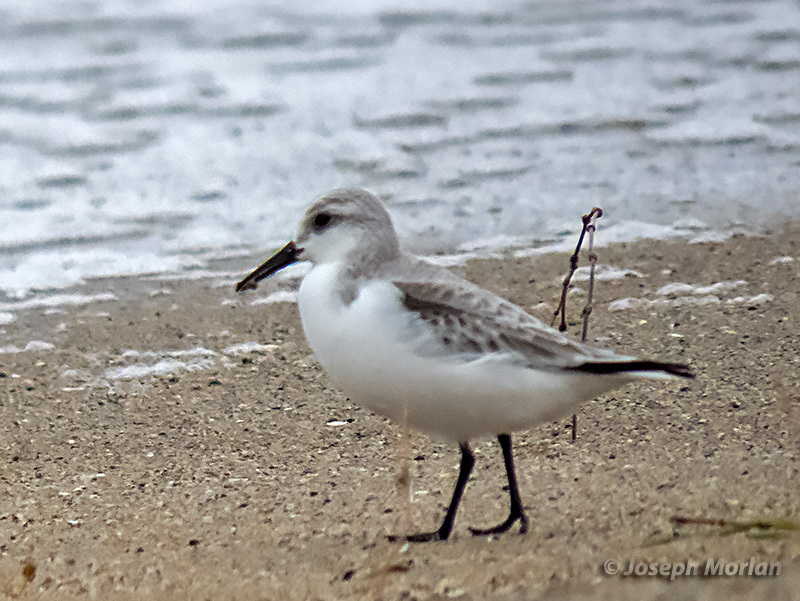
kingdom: Animalia
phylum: Chordata
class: Aves
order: Charadriiformes
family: Scolopacidae
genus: Calidris
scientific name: Calidris alba
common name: Sanderling
